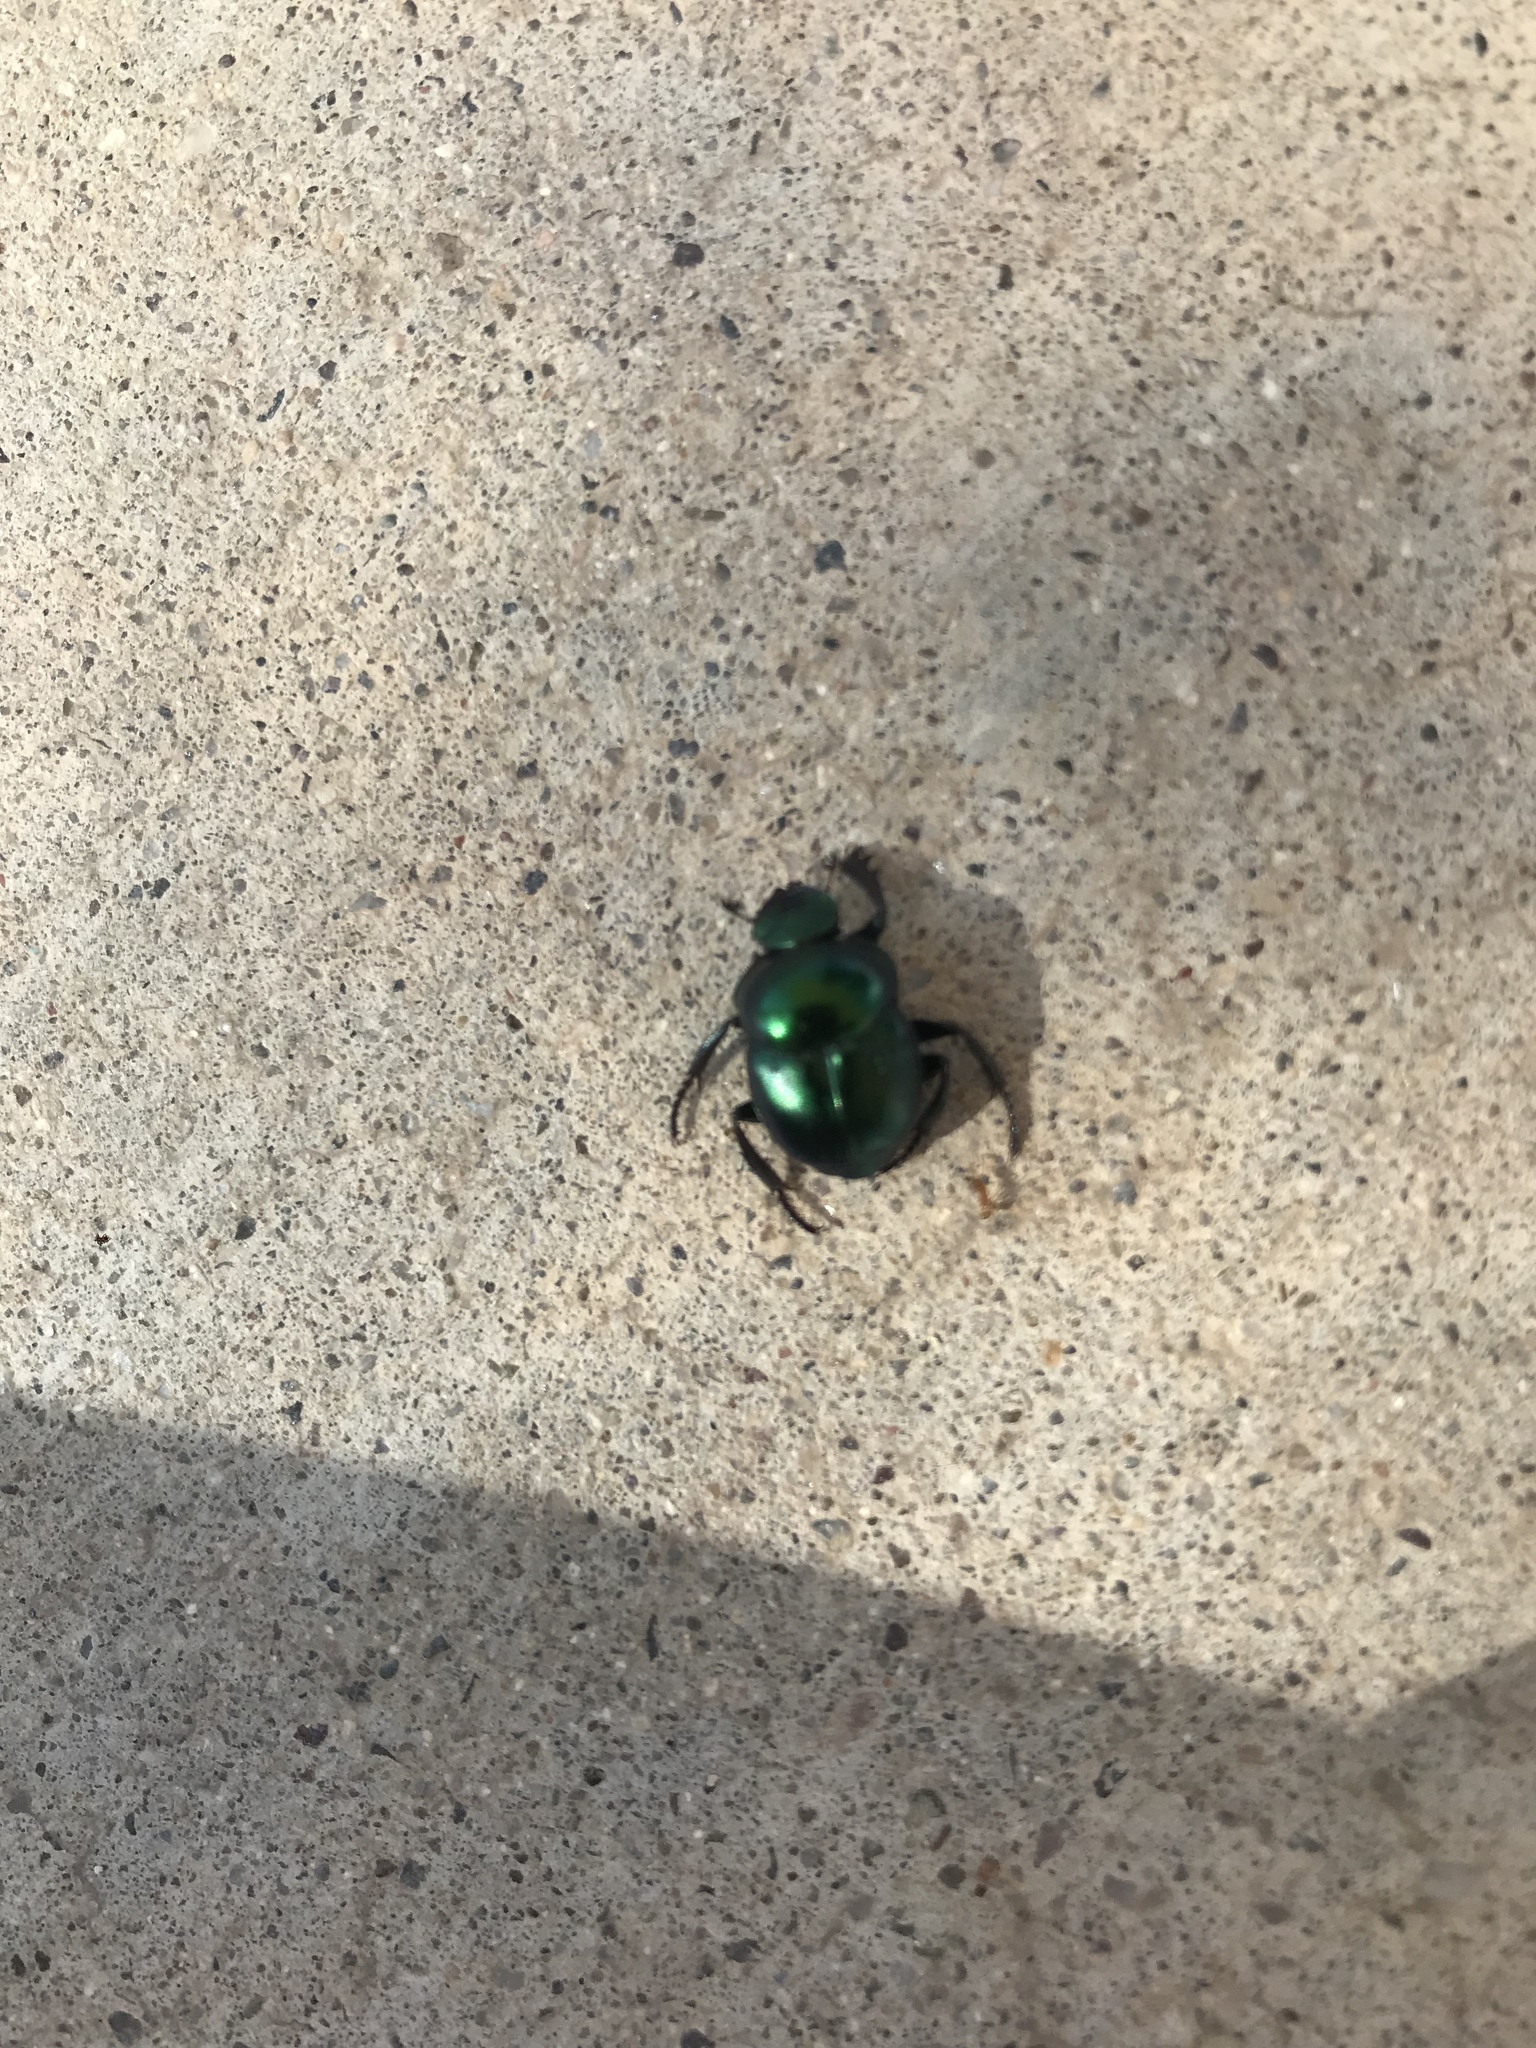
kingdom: Animalia
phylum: Arthropoda
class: Insecta
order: Coleoptera
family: Scarabaeidae
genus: Canthon
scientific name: Canthon indigaceus
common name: Tumblebug
